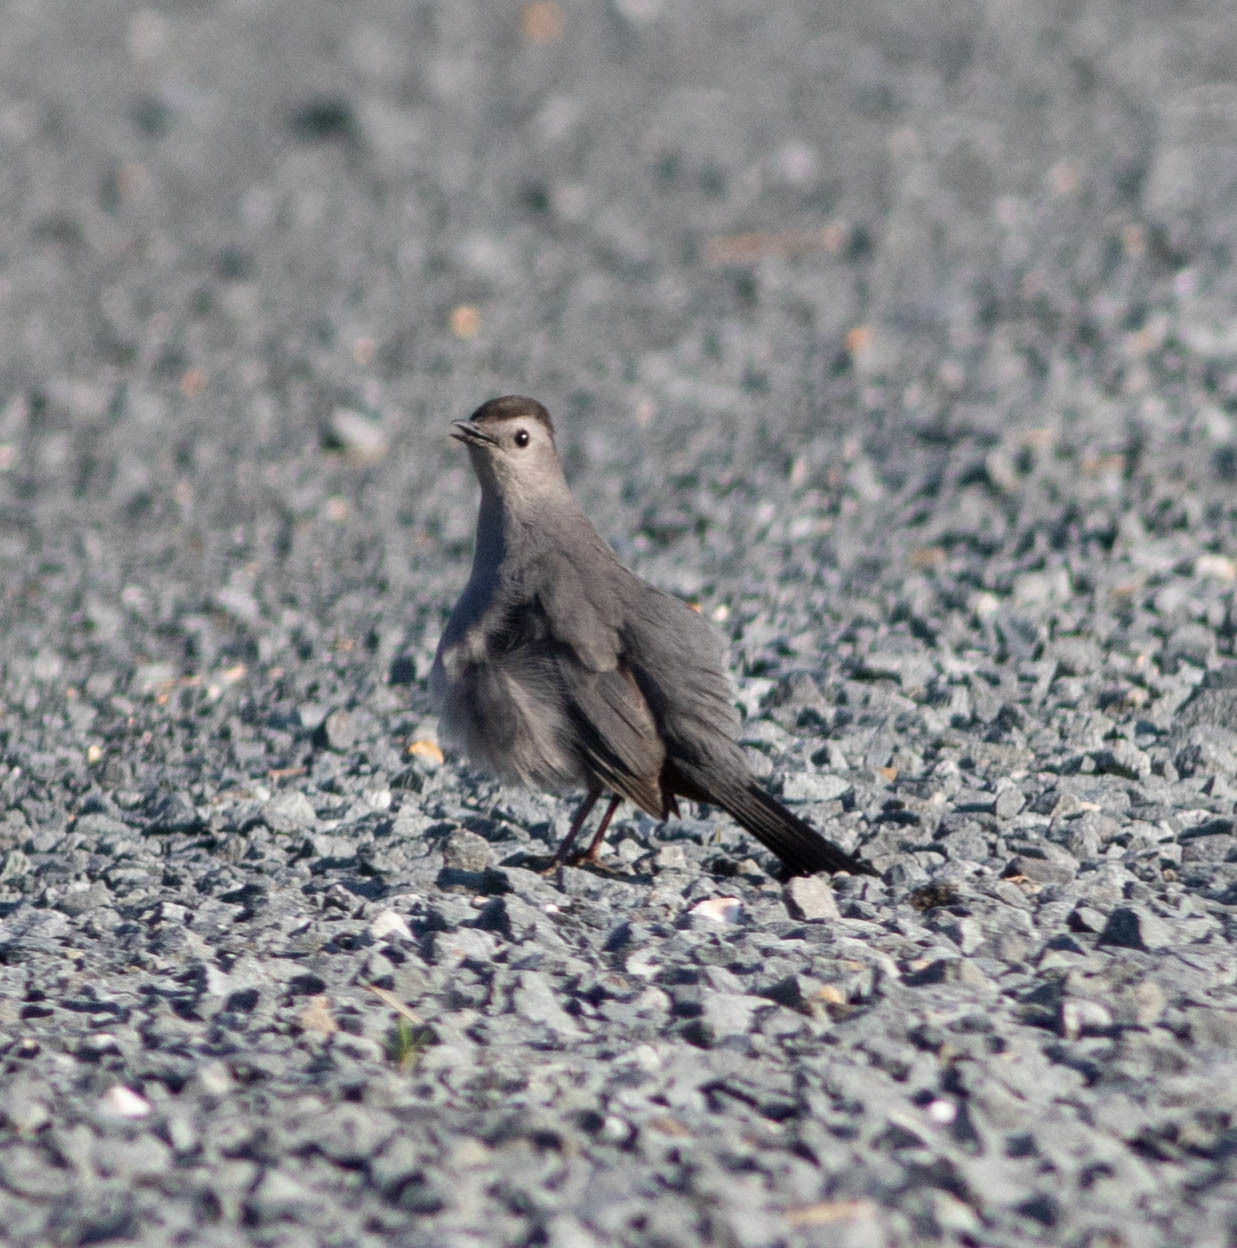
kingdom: Animalia
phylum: Chordata
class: Aves
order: Passeriformes
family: Mimidae
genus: Dumetella
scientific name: Dumetella carolinensis
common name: Gray catbird
